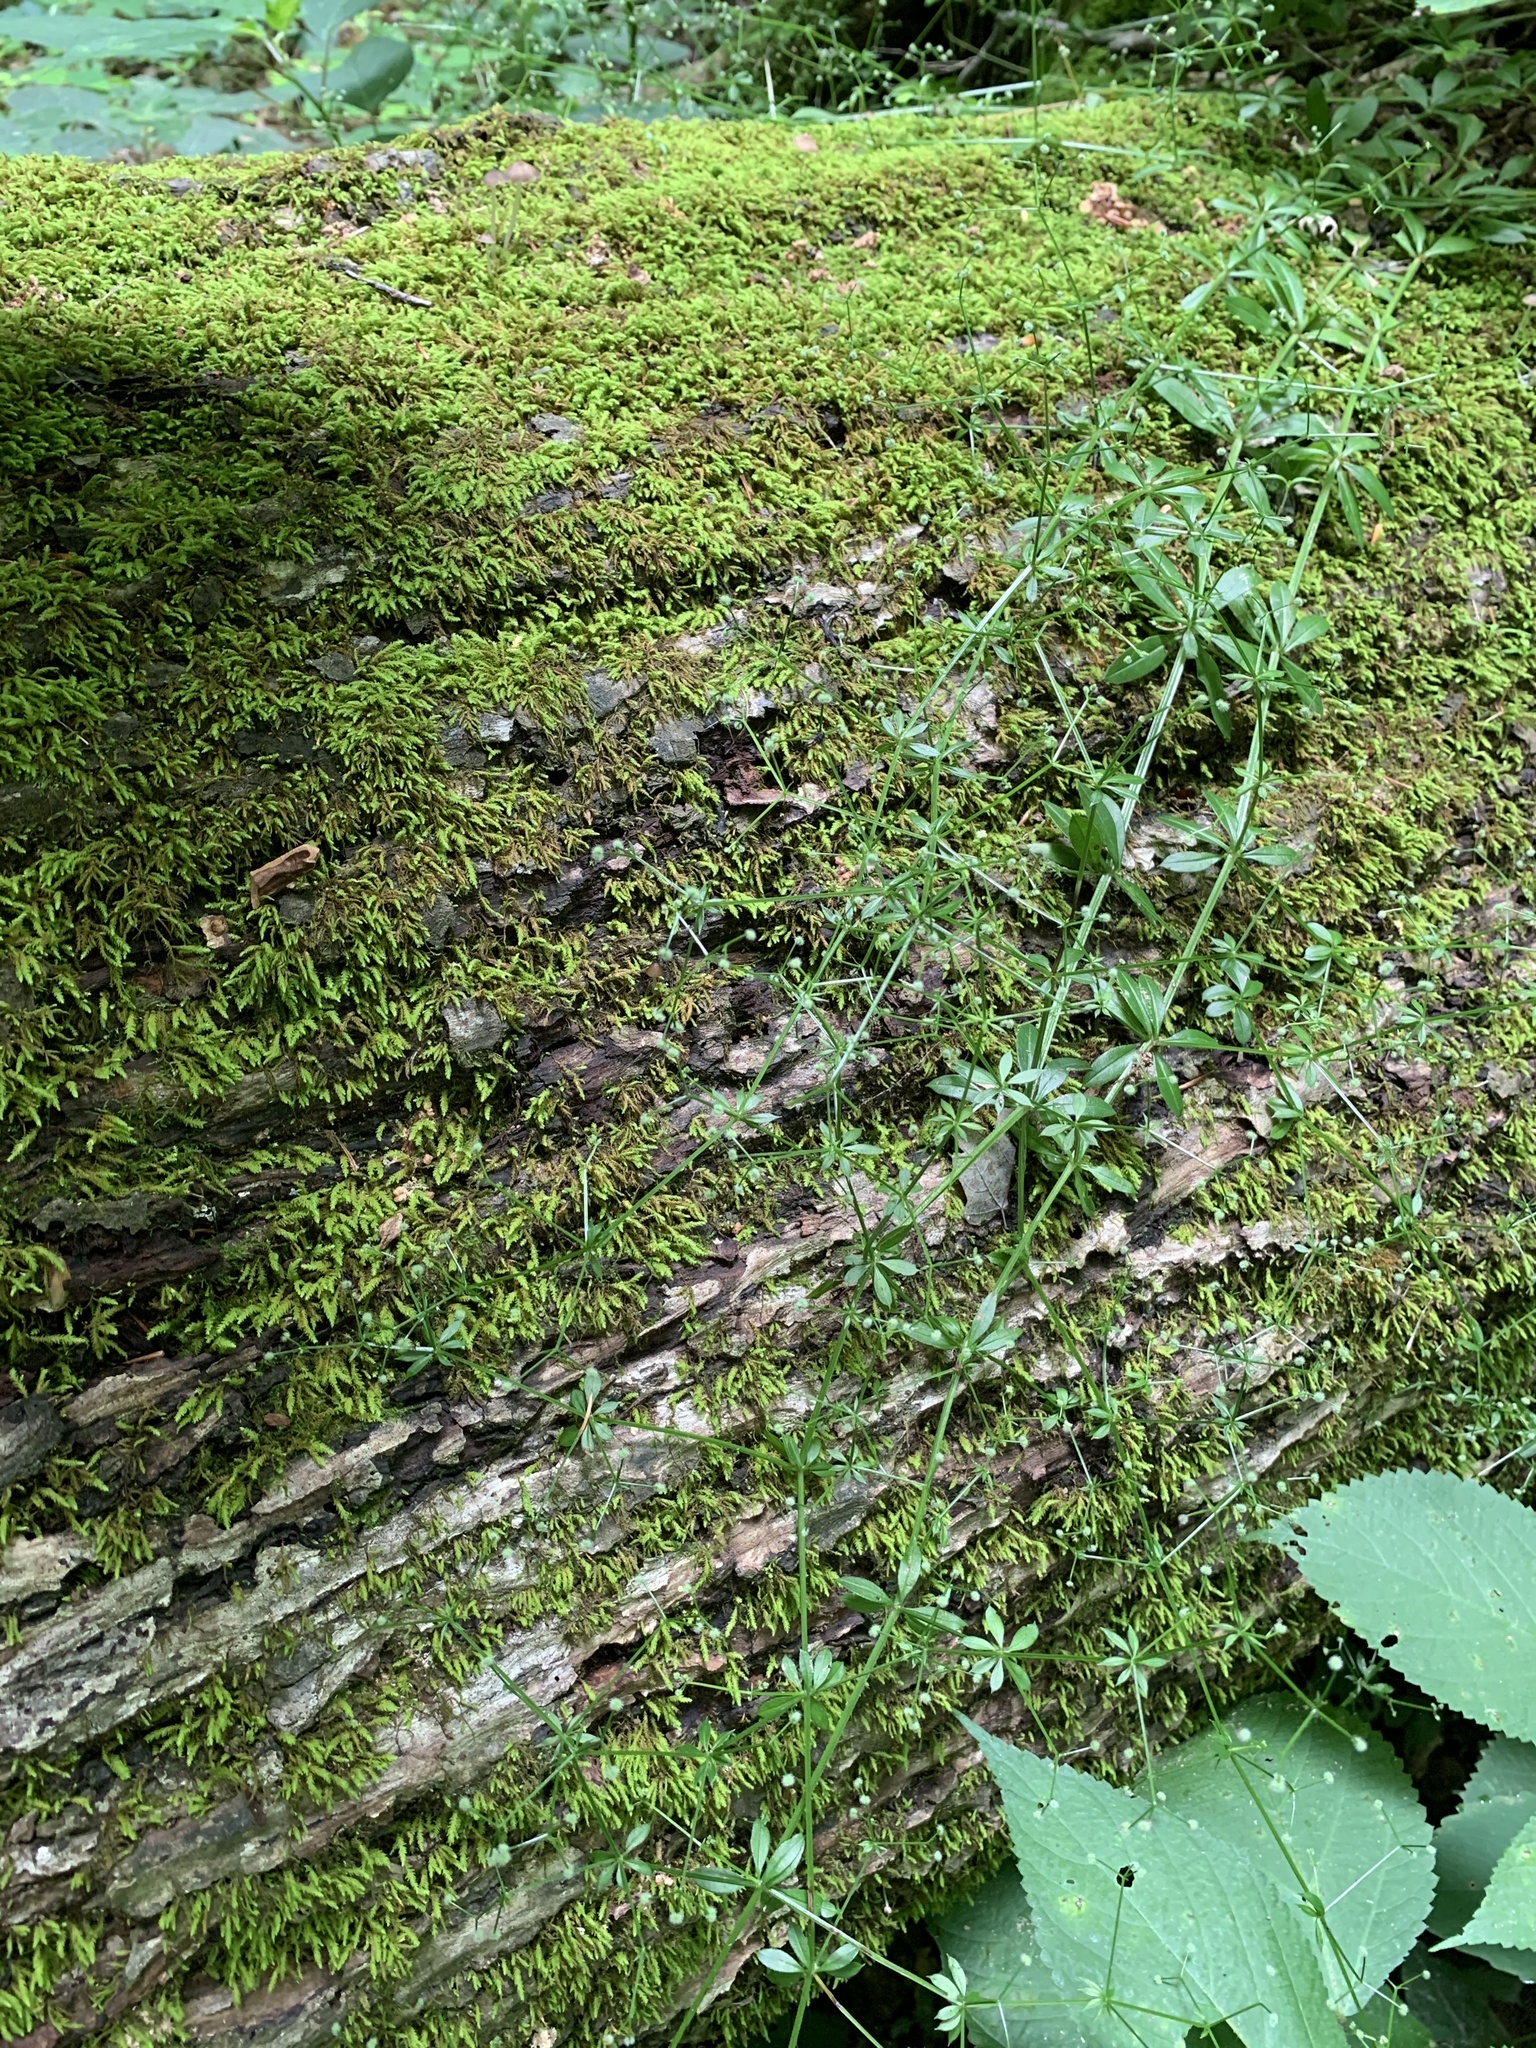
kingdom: Plantae
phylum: Tracheophyta
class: Magnoliopsida
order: Gentianales
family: Rubiaceae
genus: Galium
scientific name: Galium triflorum
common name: Fragrant bedstraw
